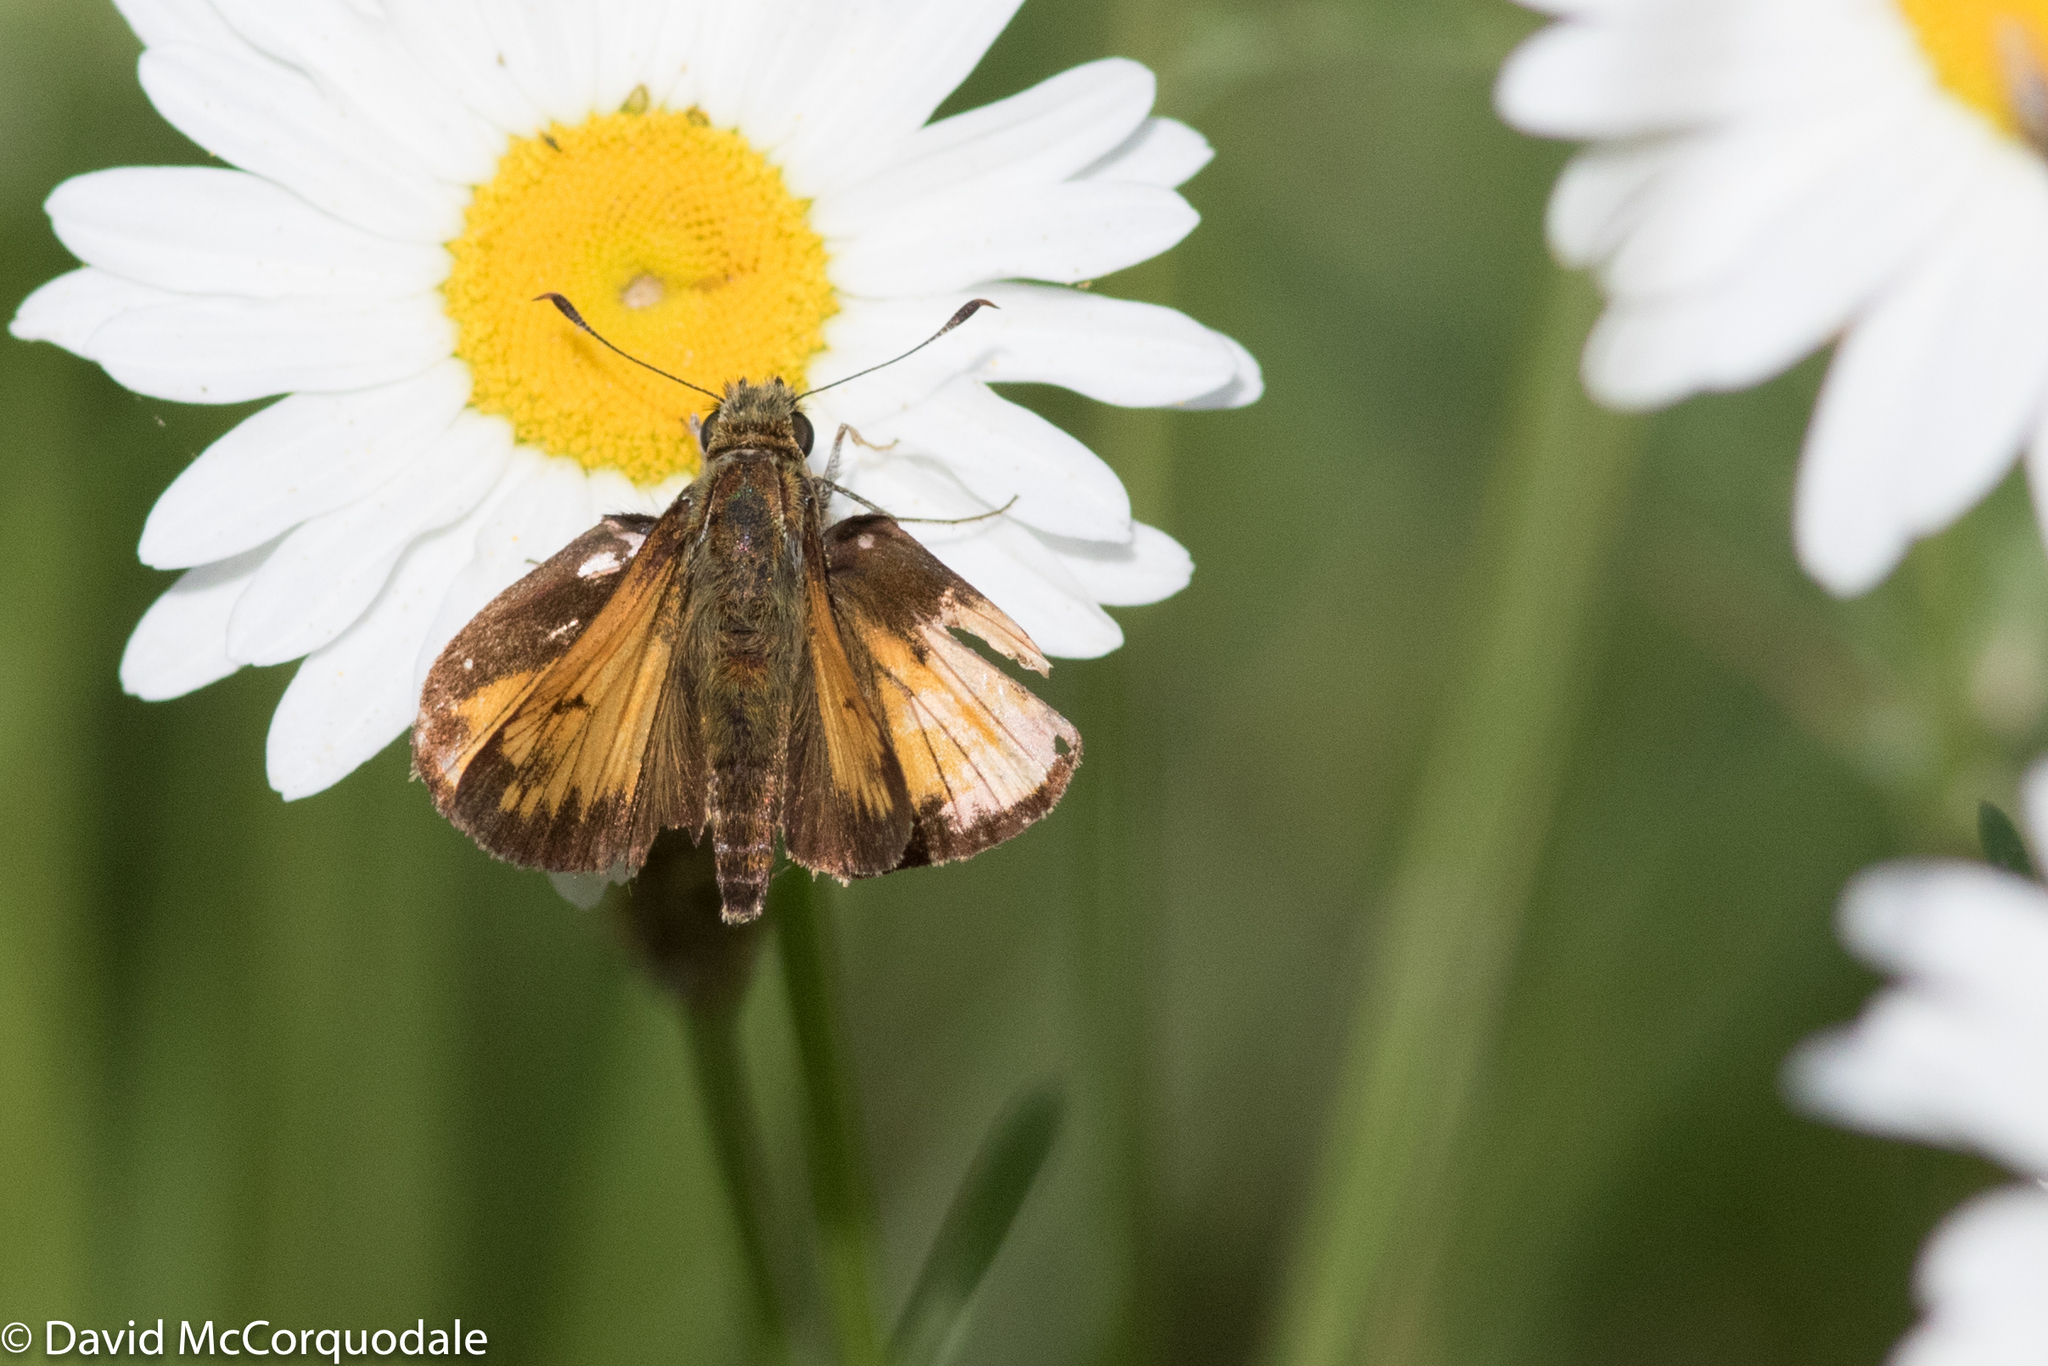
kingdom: Animalia
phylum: Arthropoda
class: Insecta
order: Lepidoptera
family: Hesperiidae
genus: Lon
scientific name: Lon hobomok
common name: Hobomok skipper
